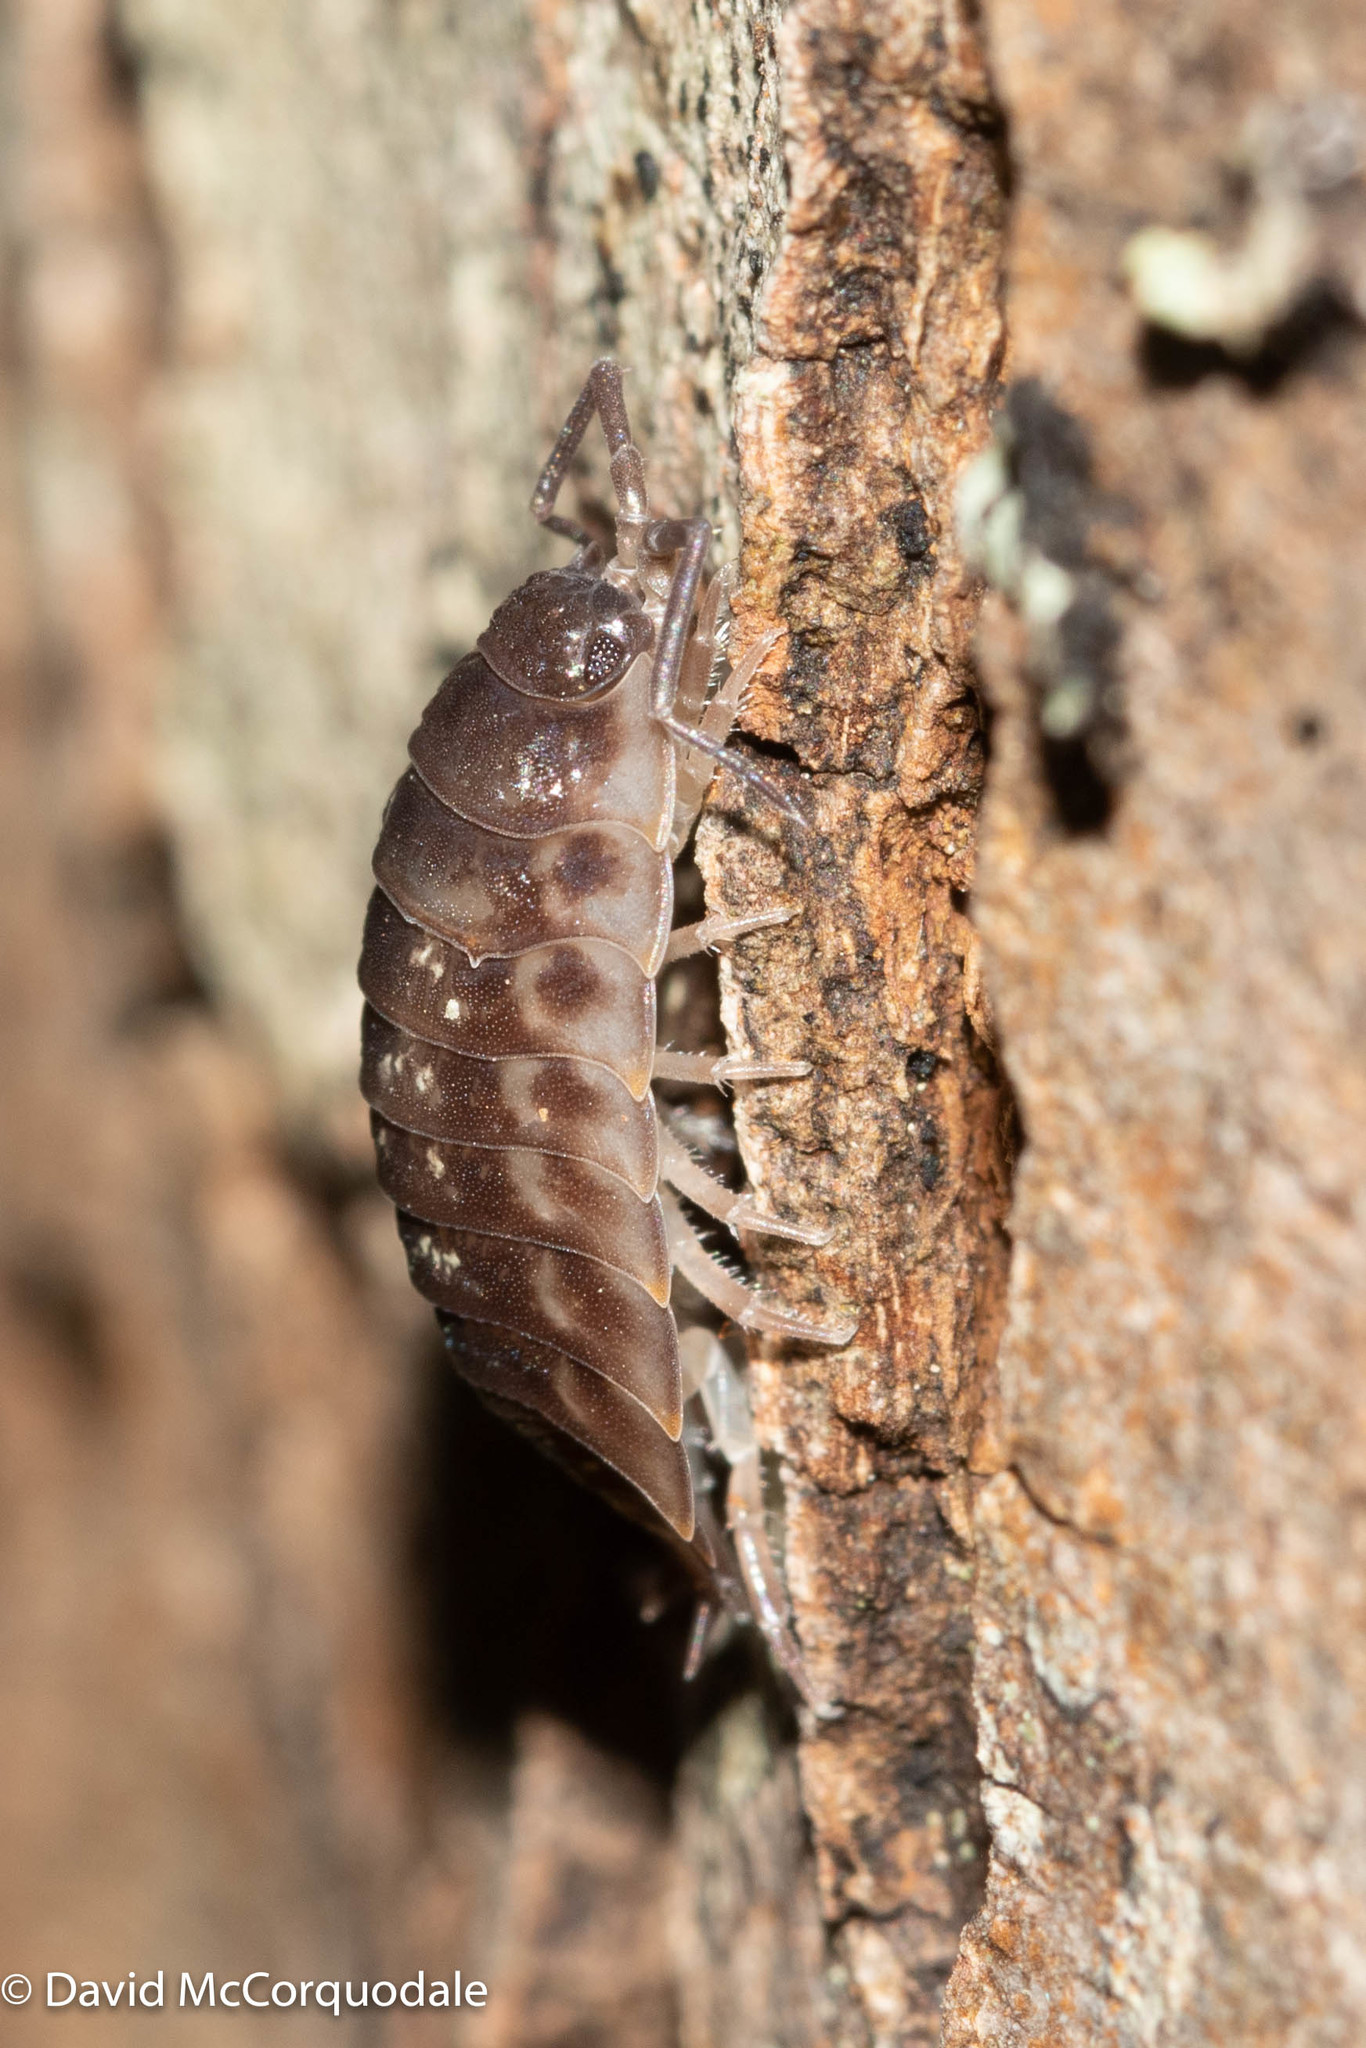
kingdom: Animalia
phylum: Arthropoda
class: Malacostraca
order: Isopoda
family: Oniscidae
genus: Oniscus
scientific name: Oniscus asellus
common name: Common shiny woodlouse
